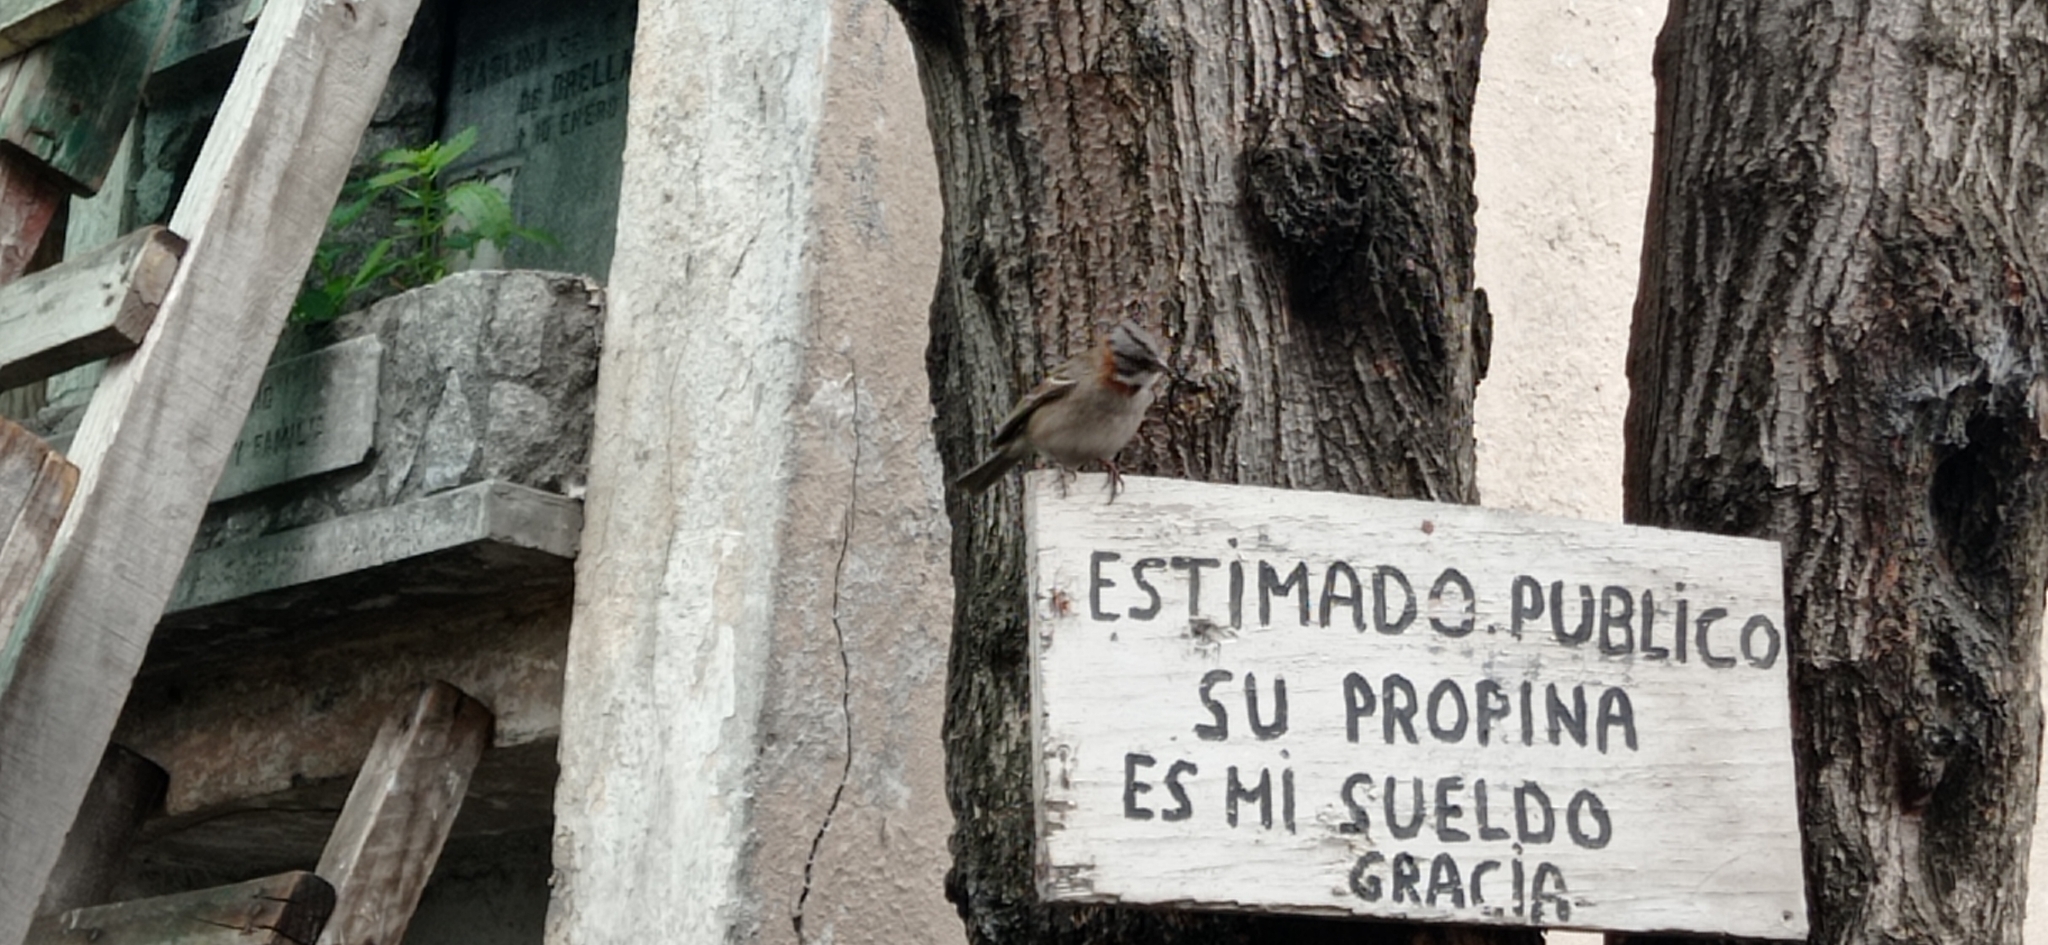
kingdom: Animalia
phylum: Chordata
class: Aves
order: Passeriformes
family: Passerellidae
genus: Zonotrichia
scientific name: Zonotrichia capensis
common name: Rufous-collared sparrow
